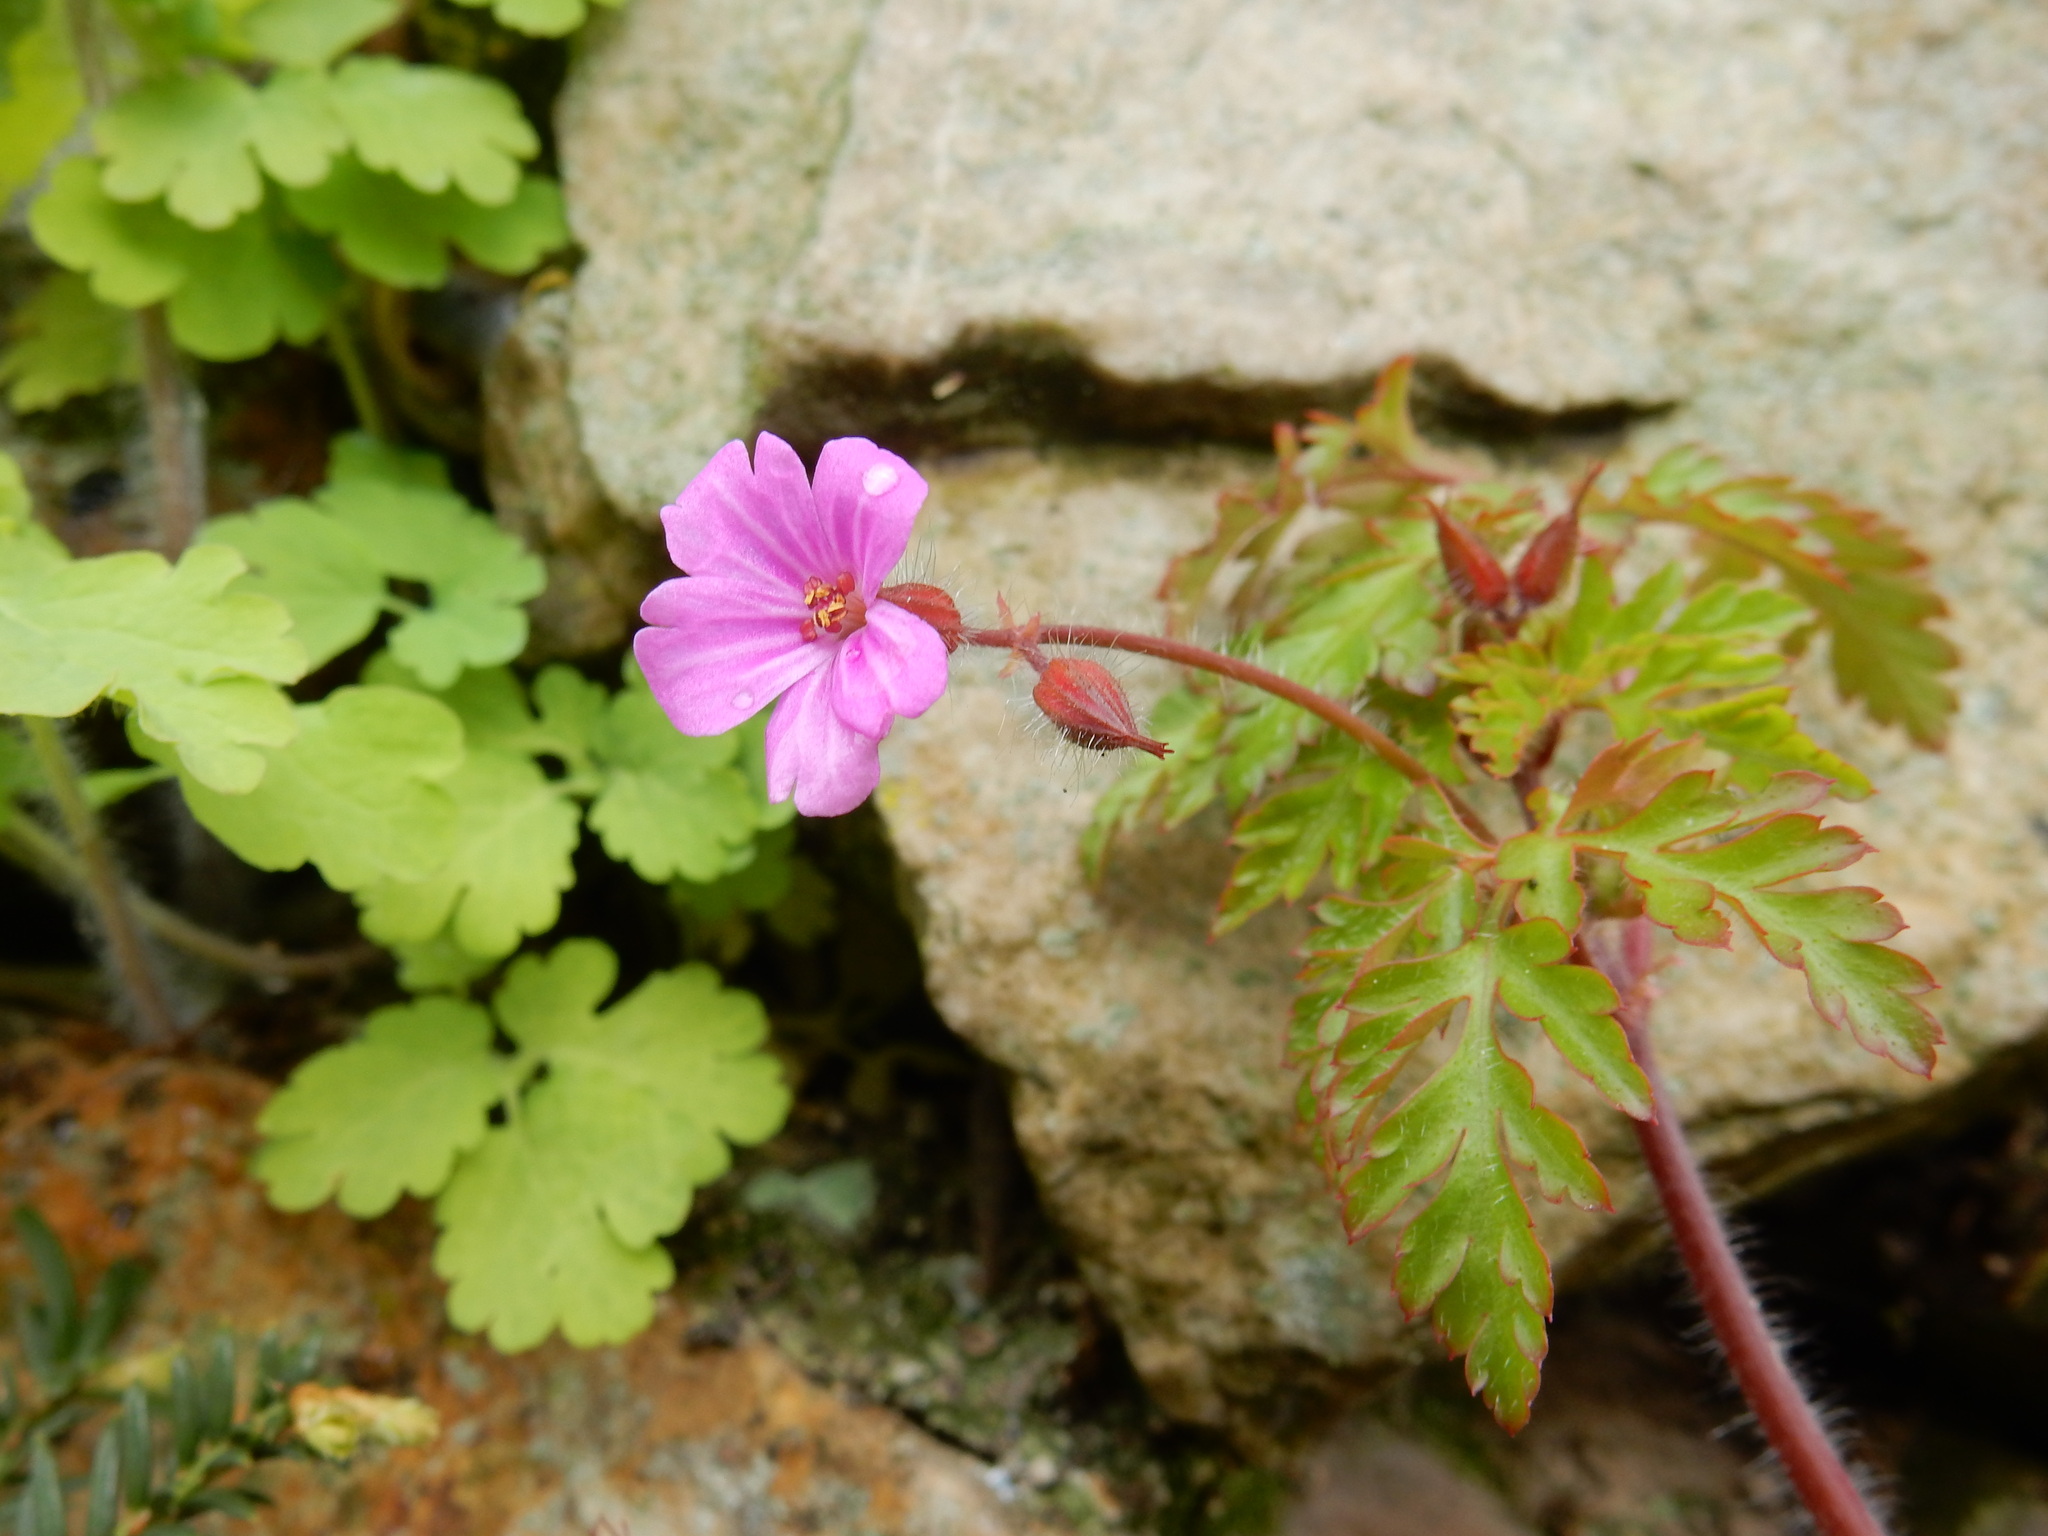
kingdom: Plantae
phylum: Tracheophyta
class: Magnoliopsida
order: Geraniales
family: Geraniaceae
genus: Geranium
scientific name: Geranium robertianum
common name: Herb-robert
